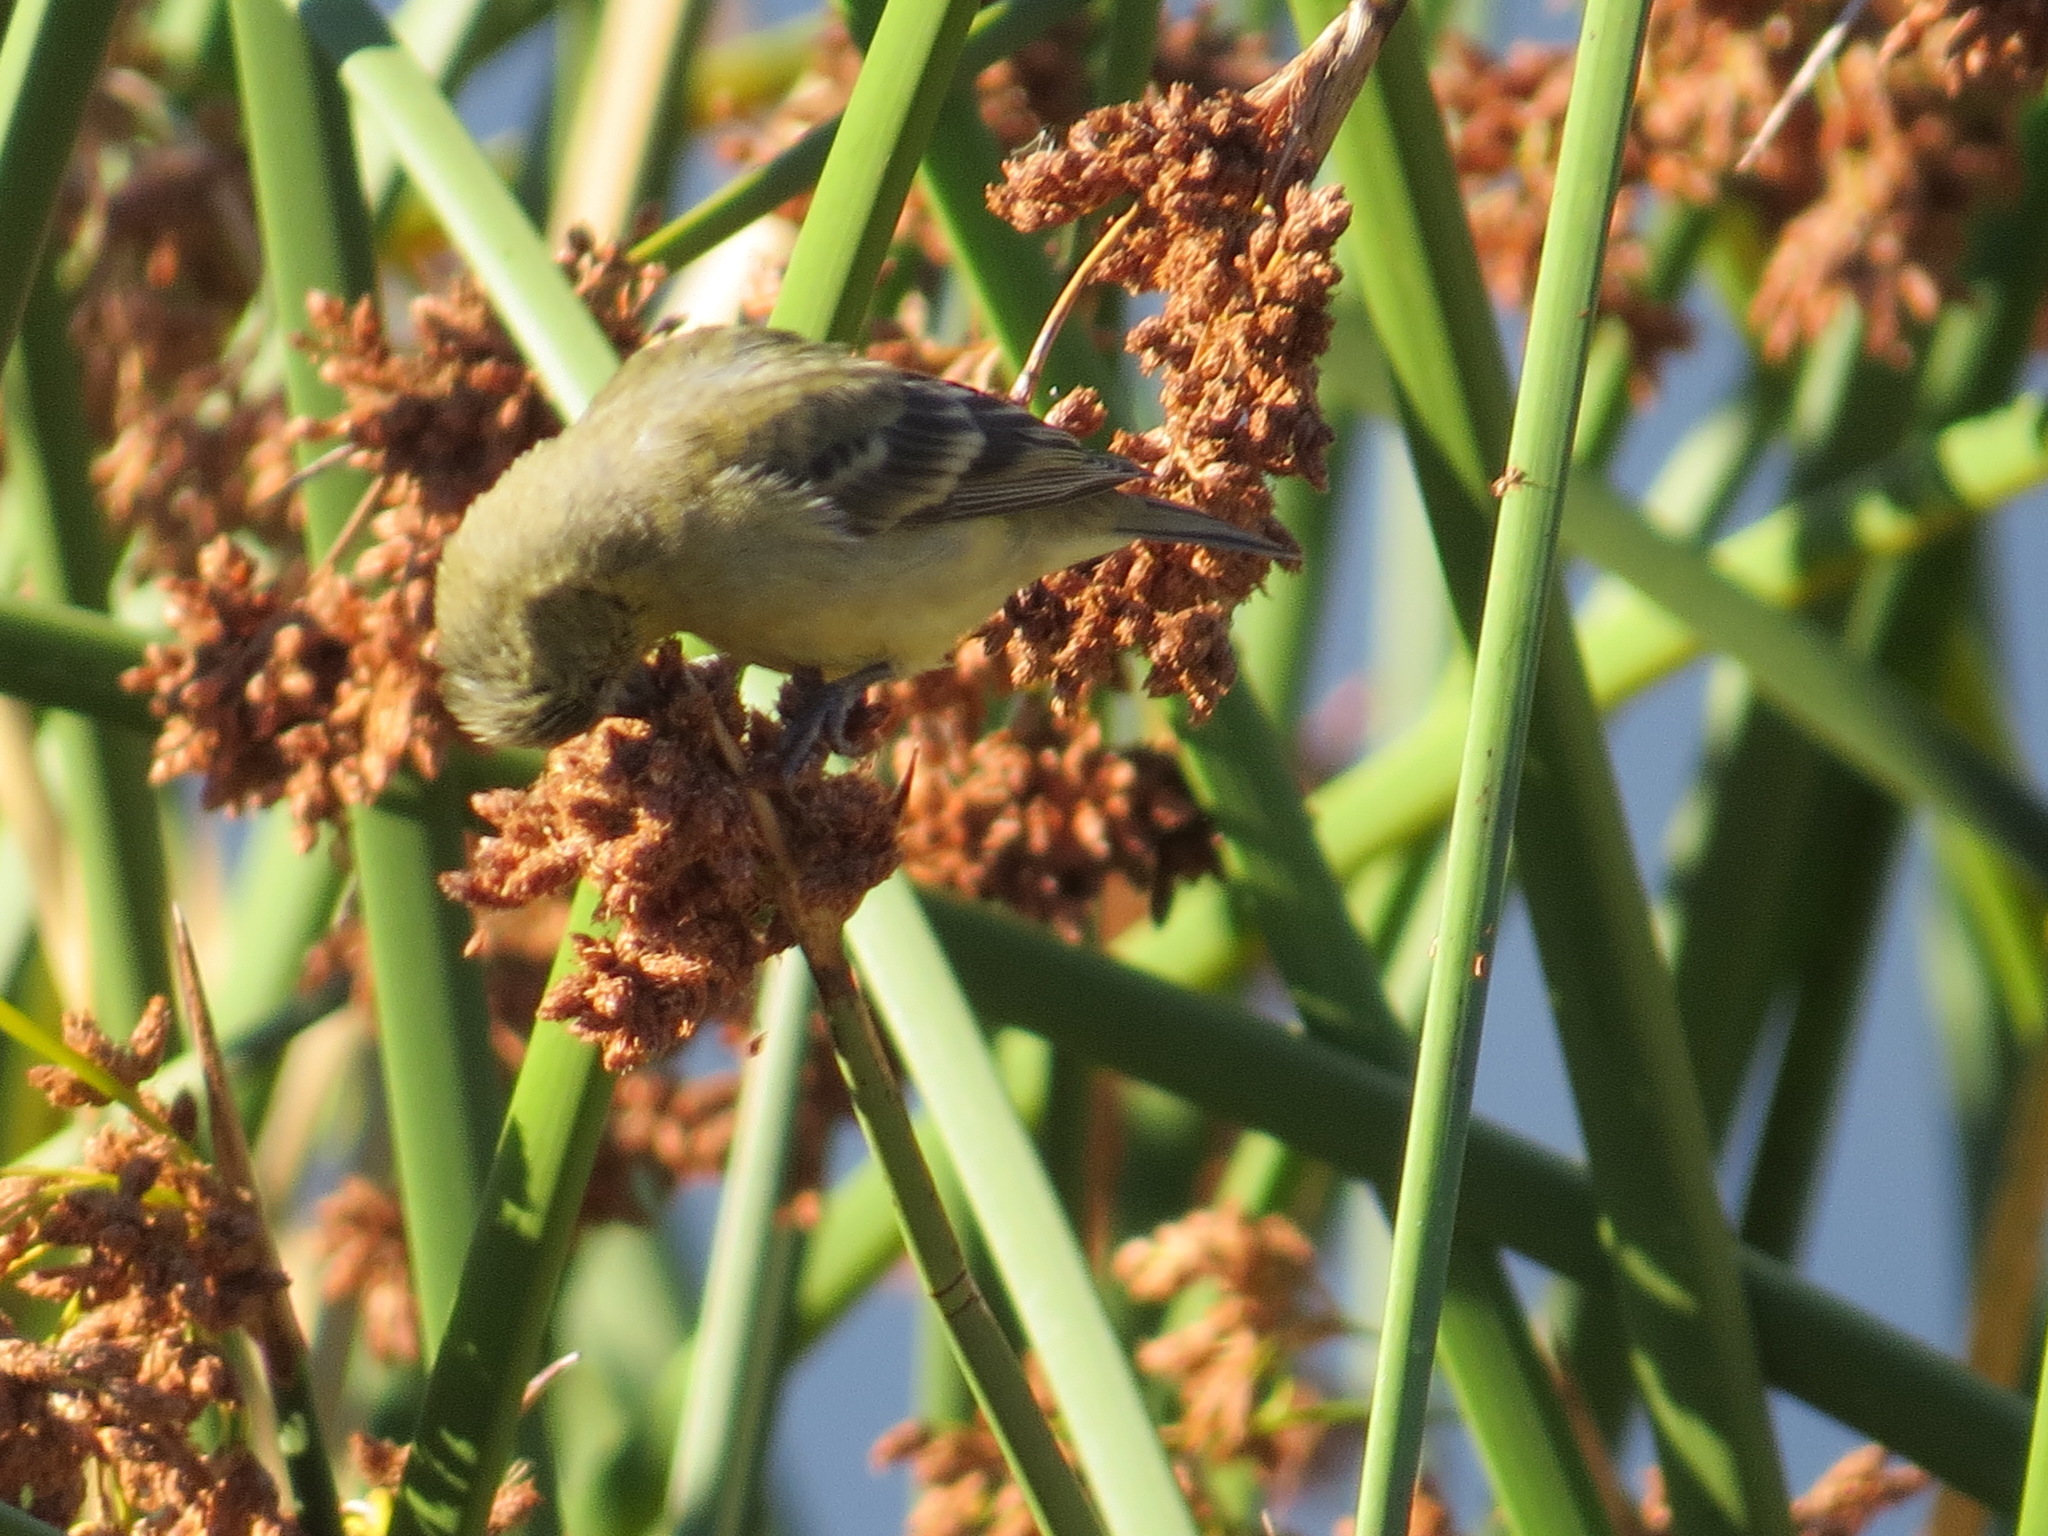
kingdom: Animalia
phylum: Chordata
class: Aves
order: Passeriformes
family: Fringillidae
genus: Spinus
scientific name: Spinus psaltria
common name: Lesser goldfinch
